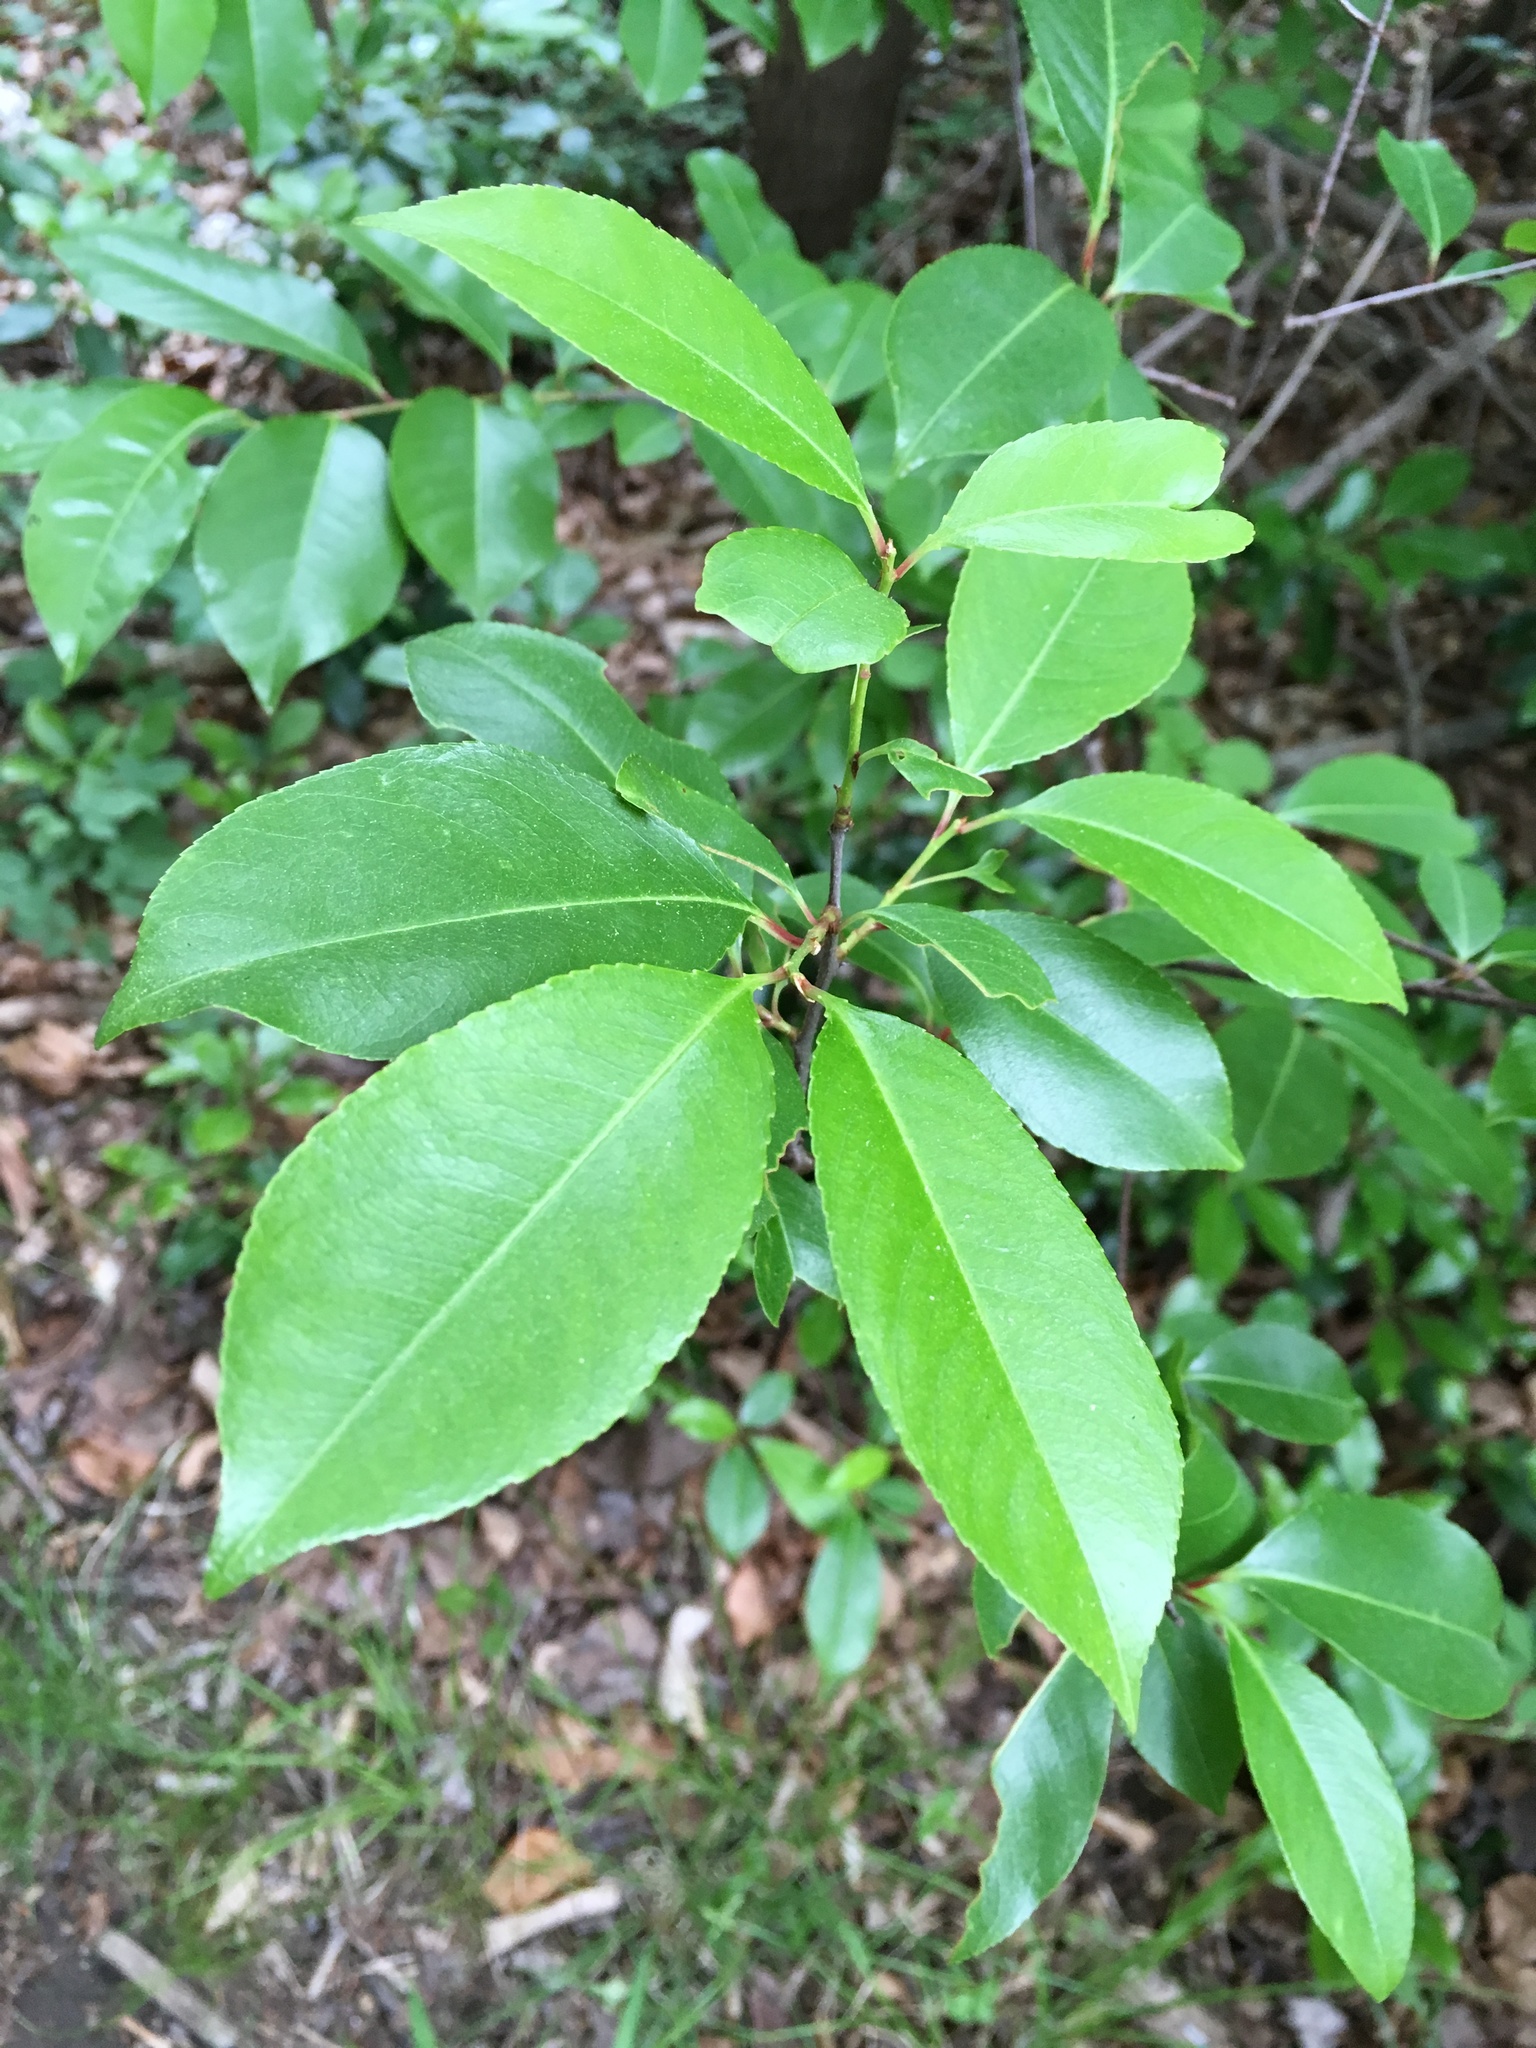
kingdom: Plantae
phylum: Tracheophyta
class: Magnoliopsida
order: Rosales
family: Rosaceae
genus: Prunus
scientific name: Prunus serotina
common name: Black cherry
